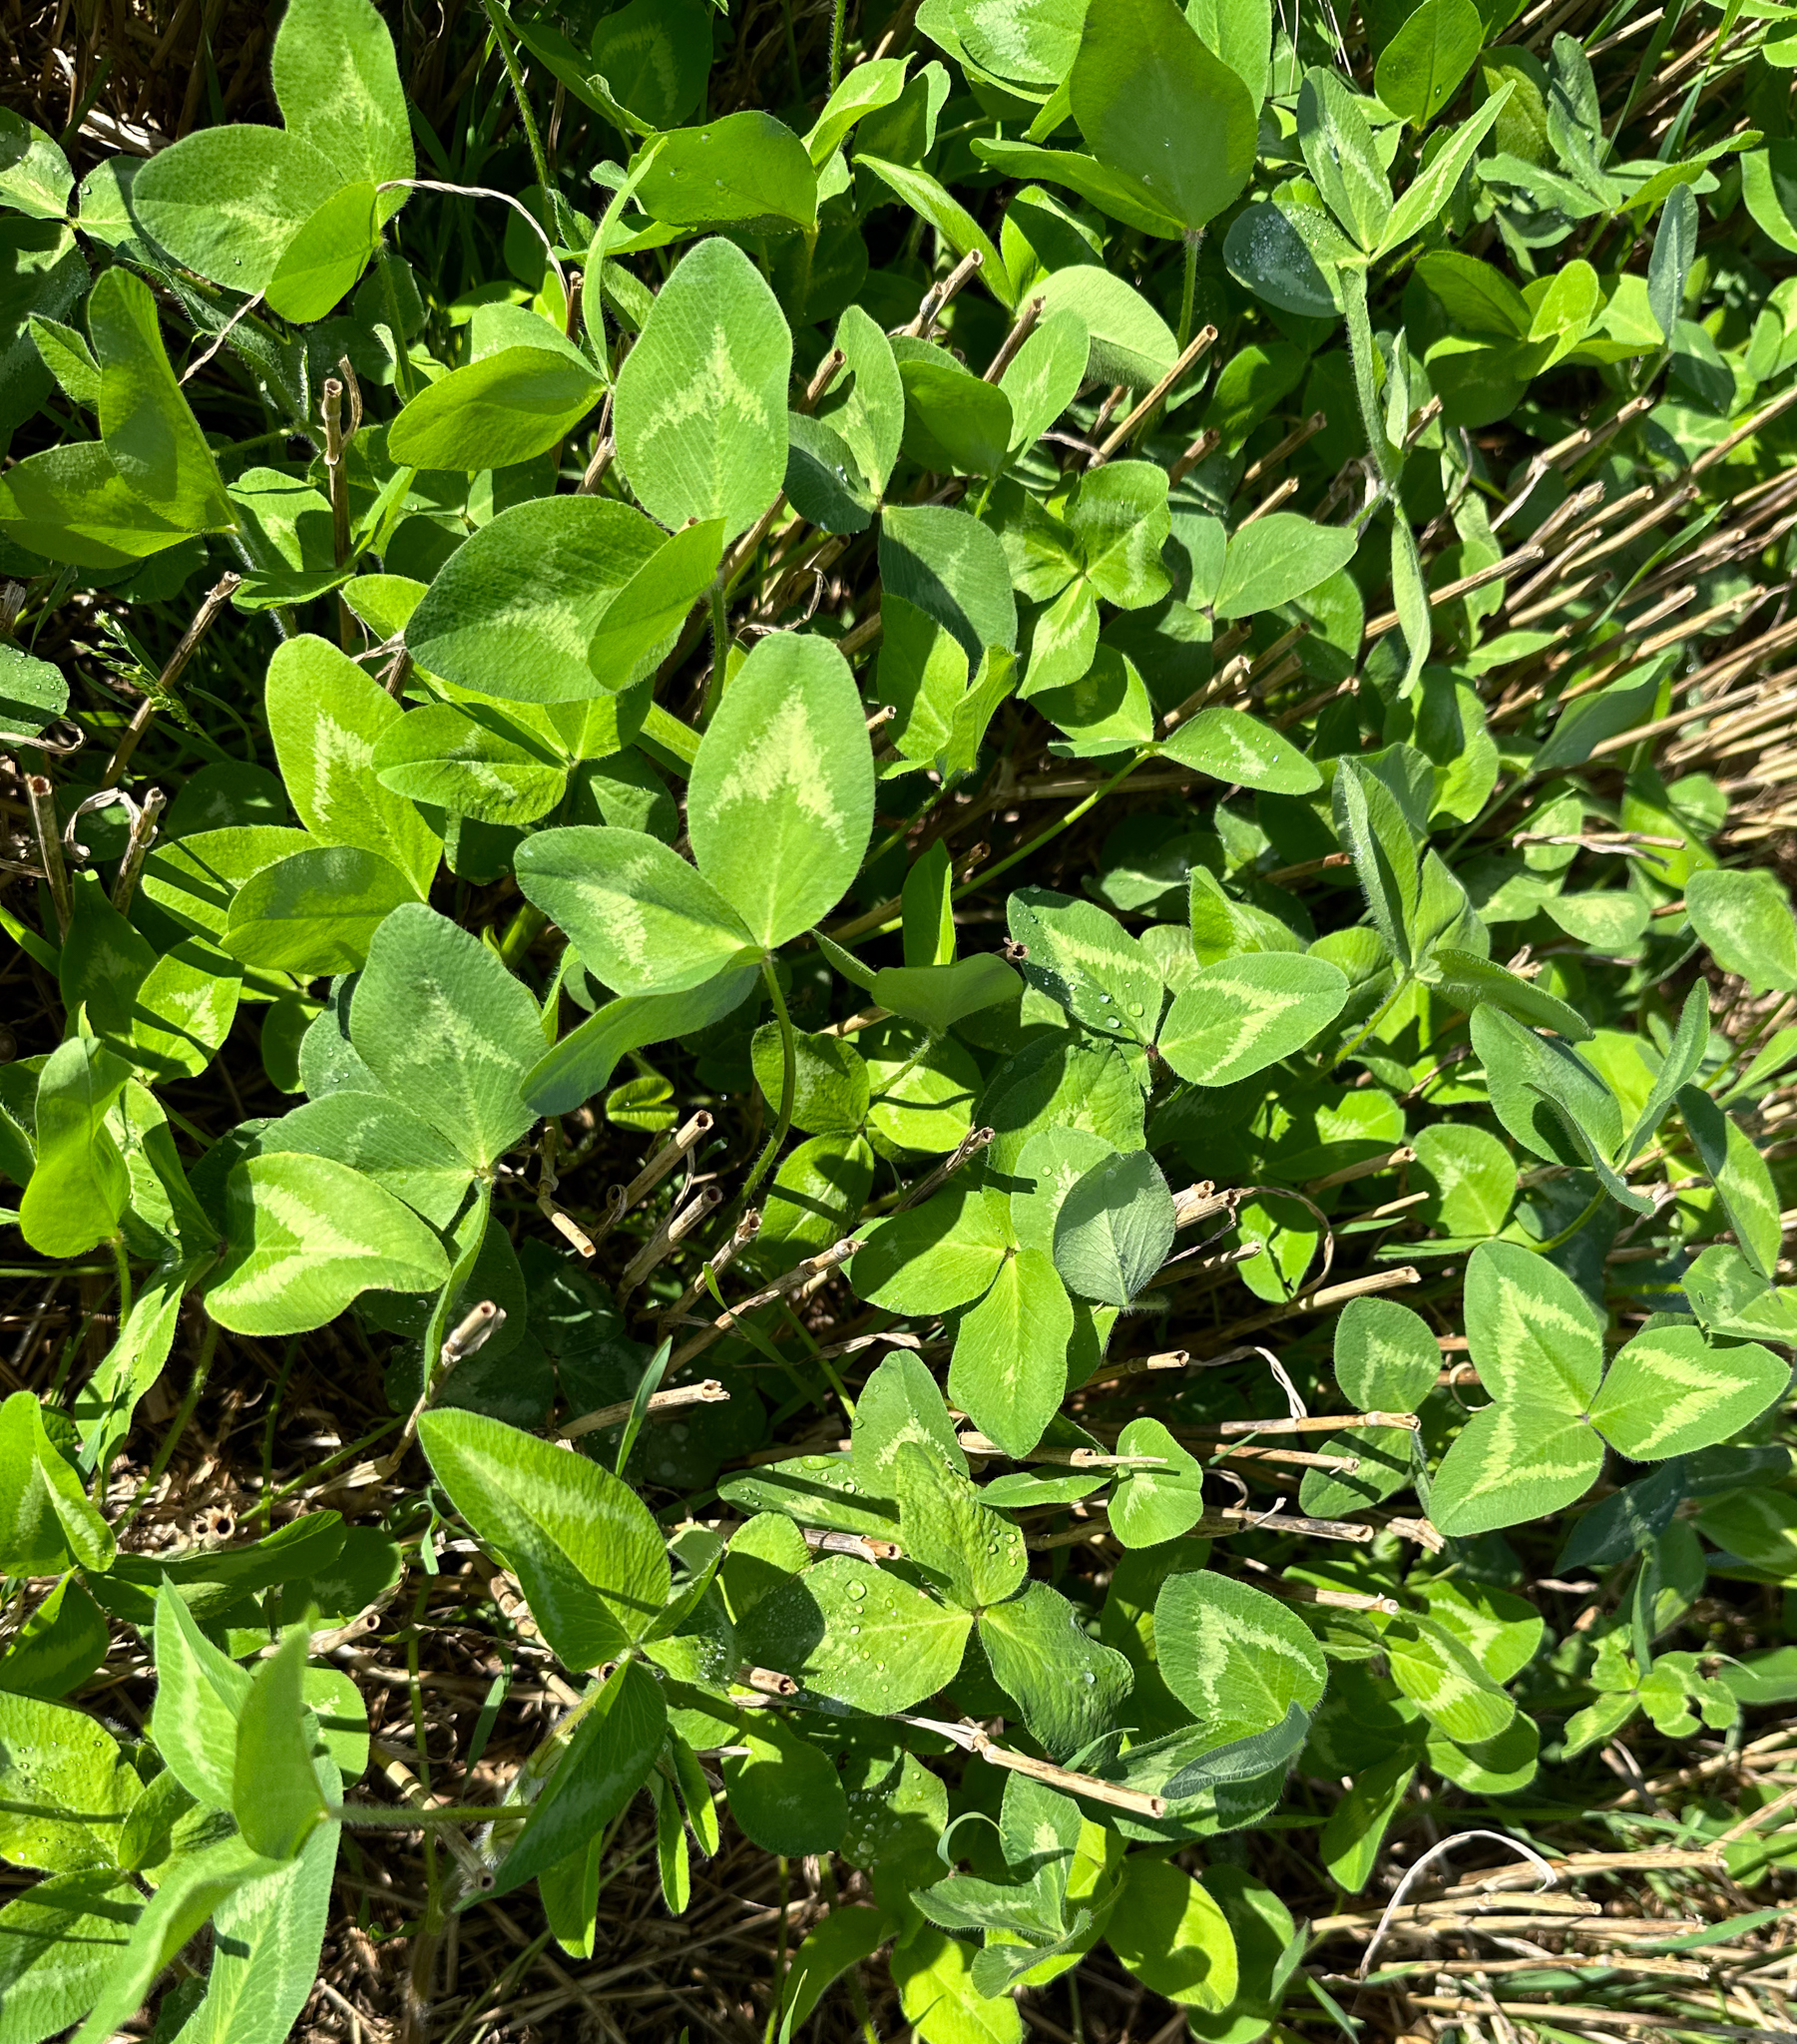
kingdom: Plantae
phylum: Tracheophyta
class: Magnoliopsida
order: Fabales
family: Fabaceae
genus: Trifolium
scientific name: Trifolium pratense
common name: Red clover
